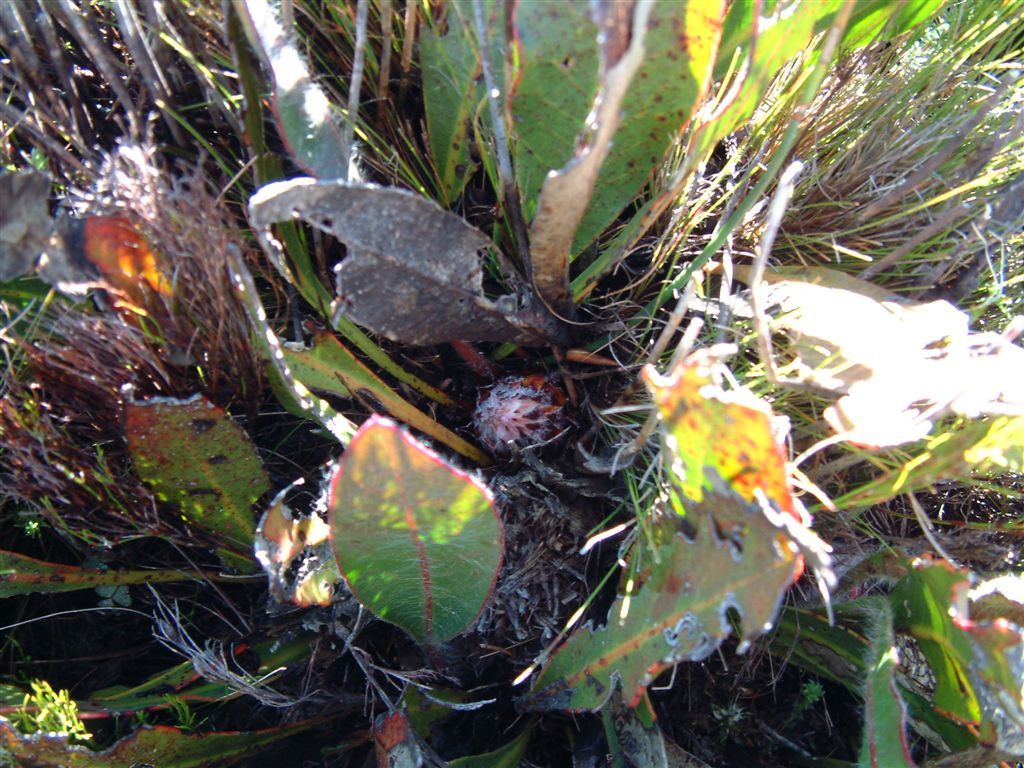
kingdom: Plantae
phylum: Tracheophyta
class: Magnoliopsida
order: Proteales
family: Proteaceae
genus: Protea
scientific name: Protea scolopendriifolia
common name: Harts-tongue-fern sugarbush
